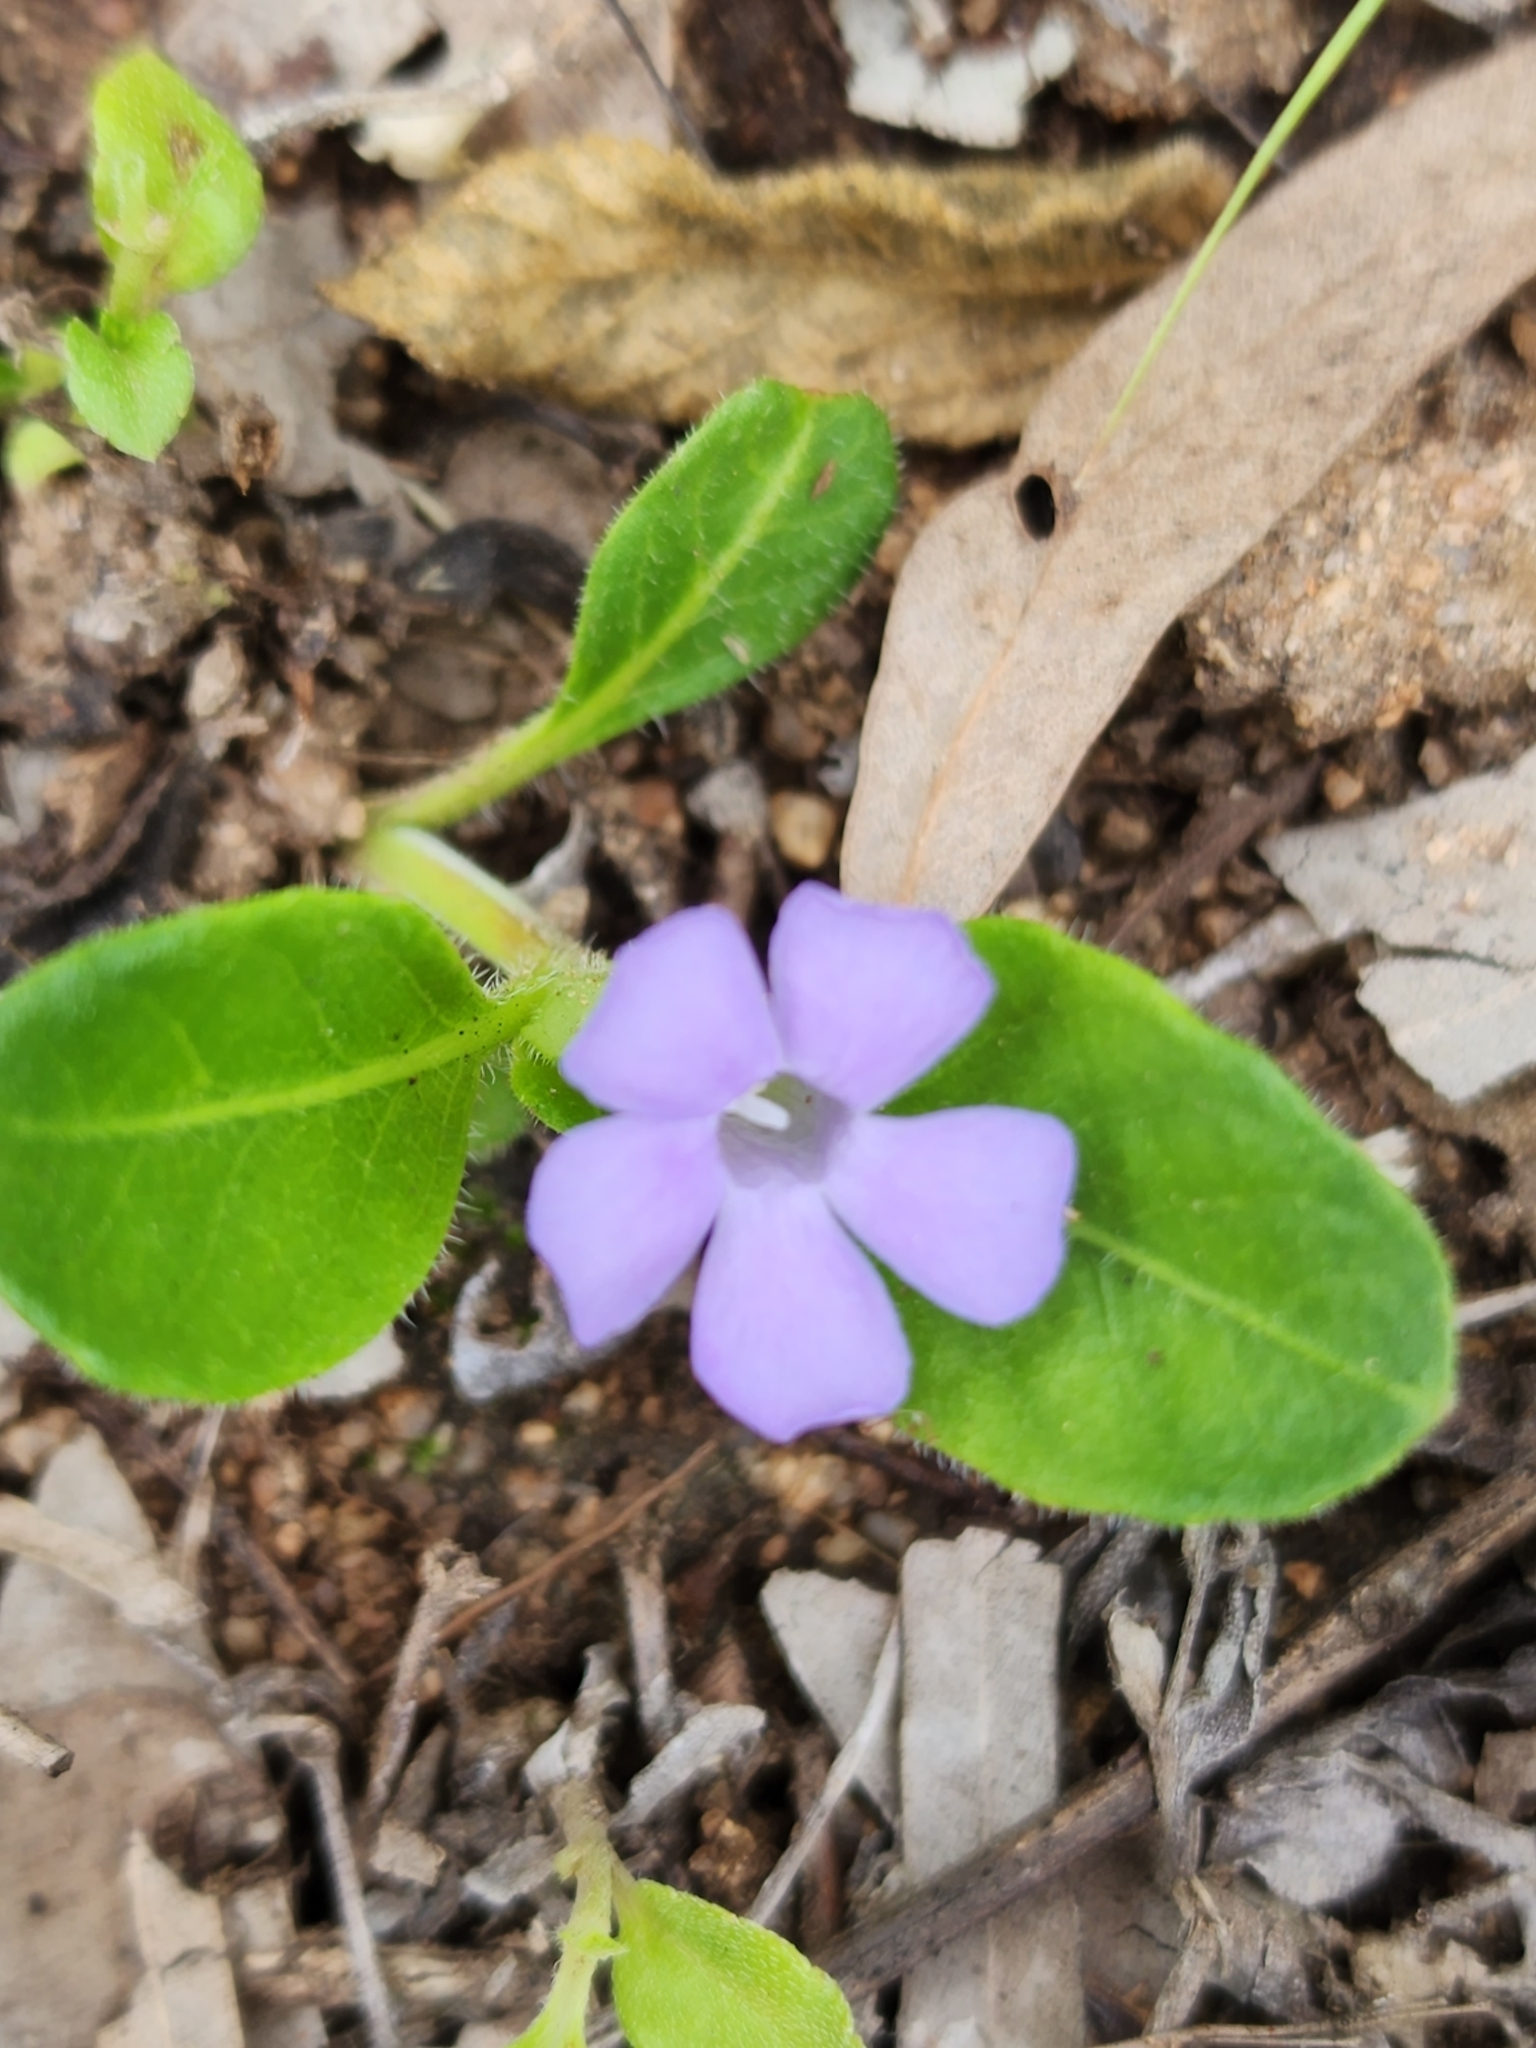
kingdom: Plantae
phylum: Tracheophyta
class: Magnoliopsida
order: Lamiales
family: Acanthaceae
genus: Brunoniella
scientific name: Brunoniella australis
